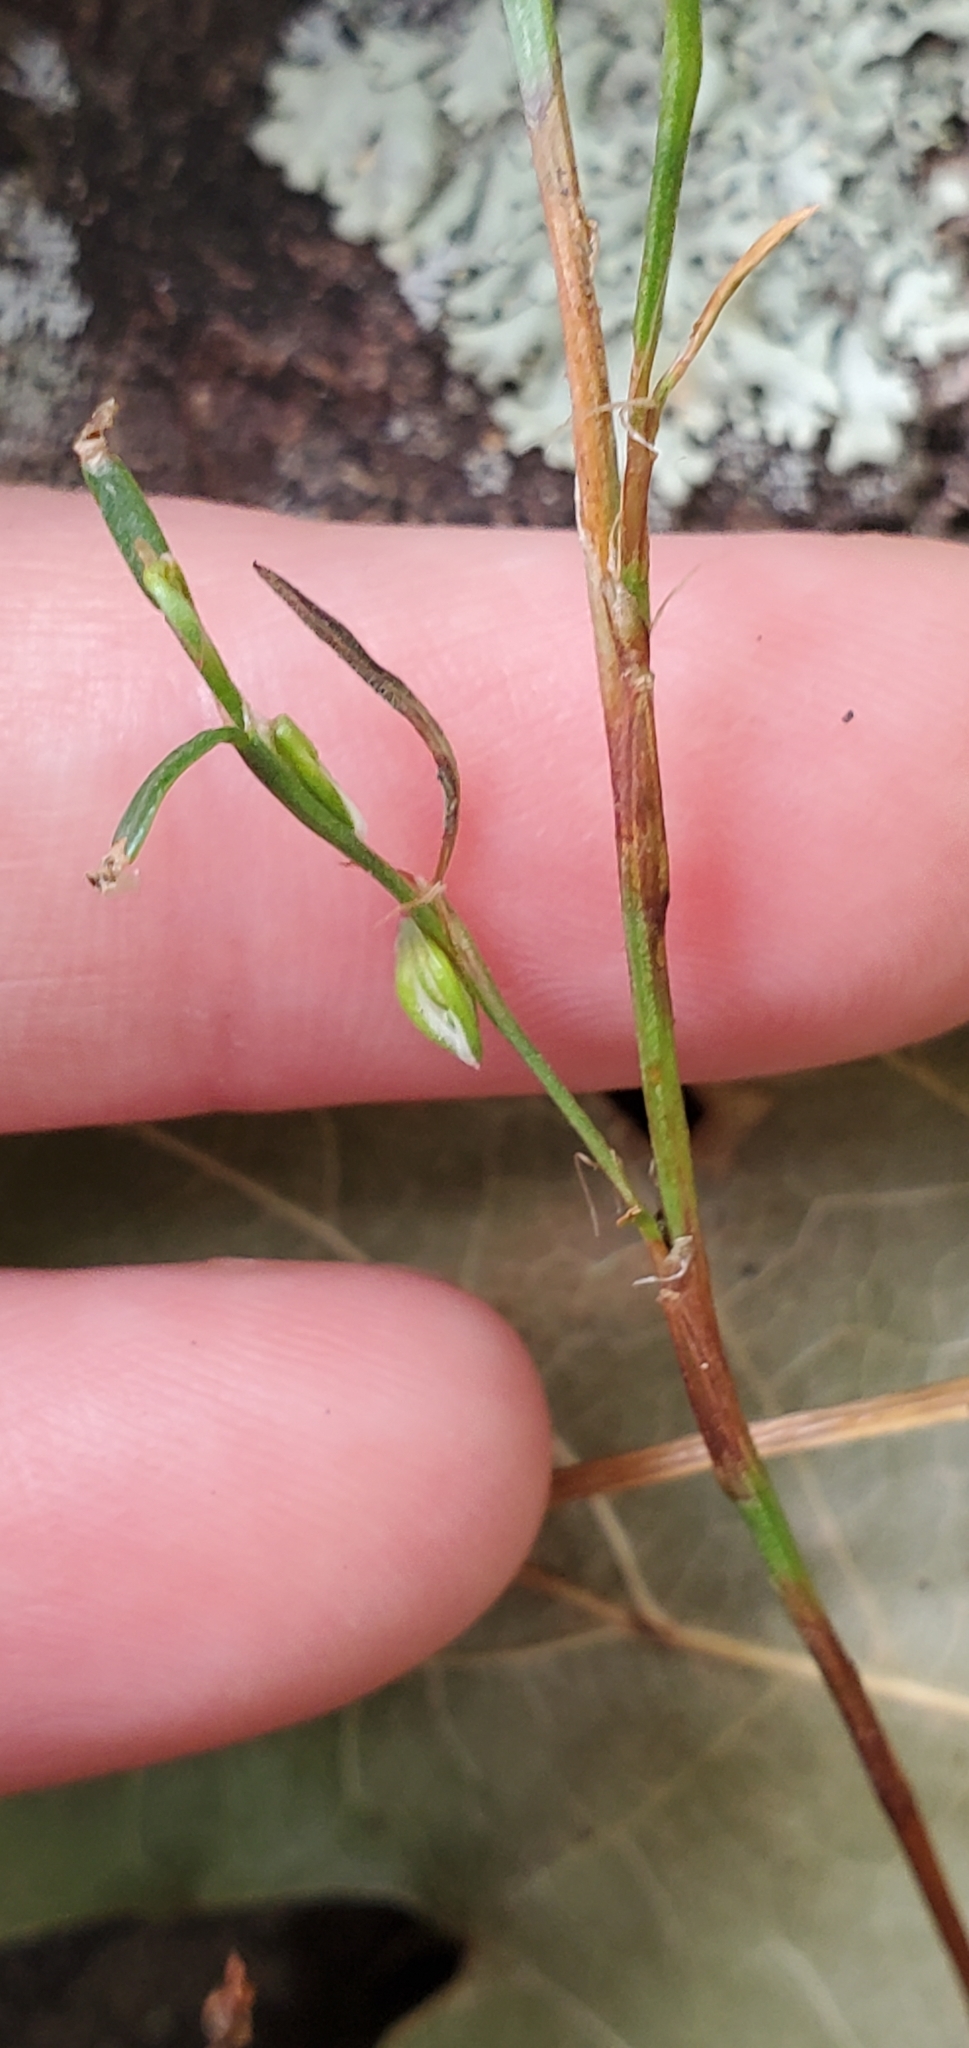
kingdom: Plantae
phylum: Tracheophyta
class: Magnoliopsida
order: Caryophyllales
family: Polygonaceae
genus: Polygonum
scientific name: Polygonum douglasii
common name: Douglas' knotweed
